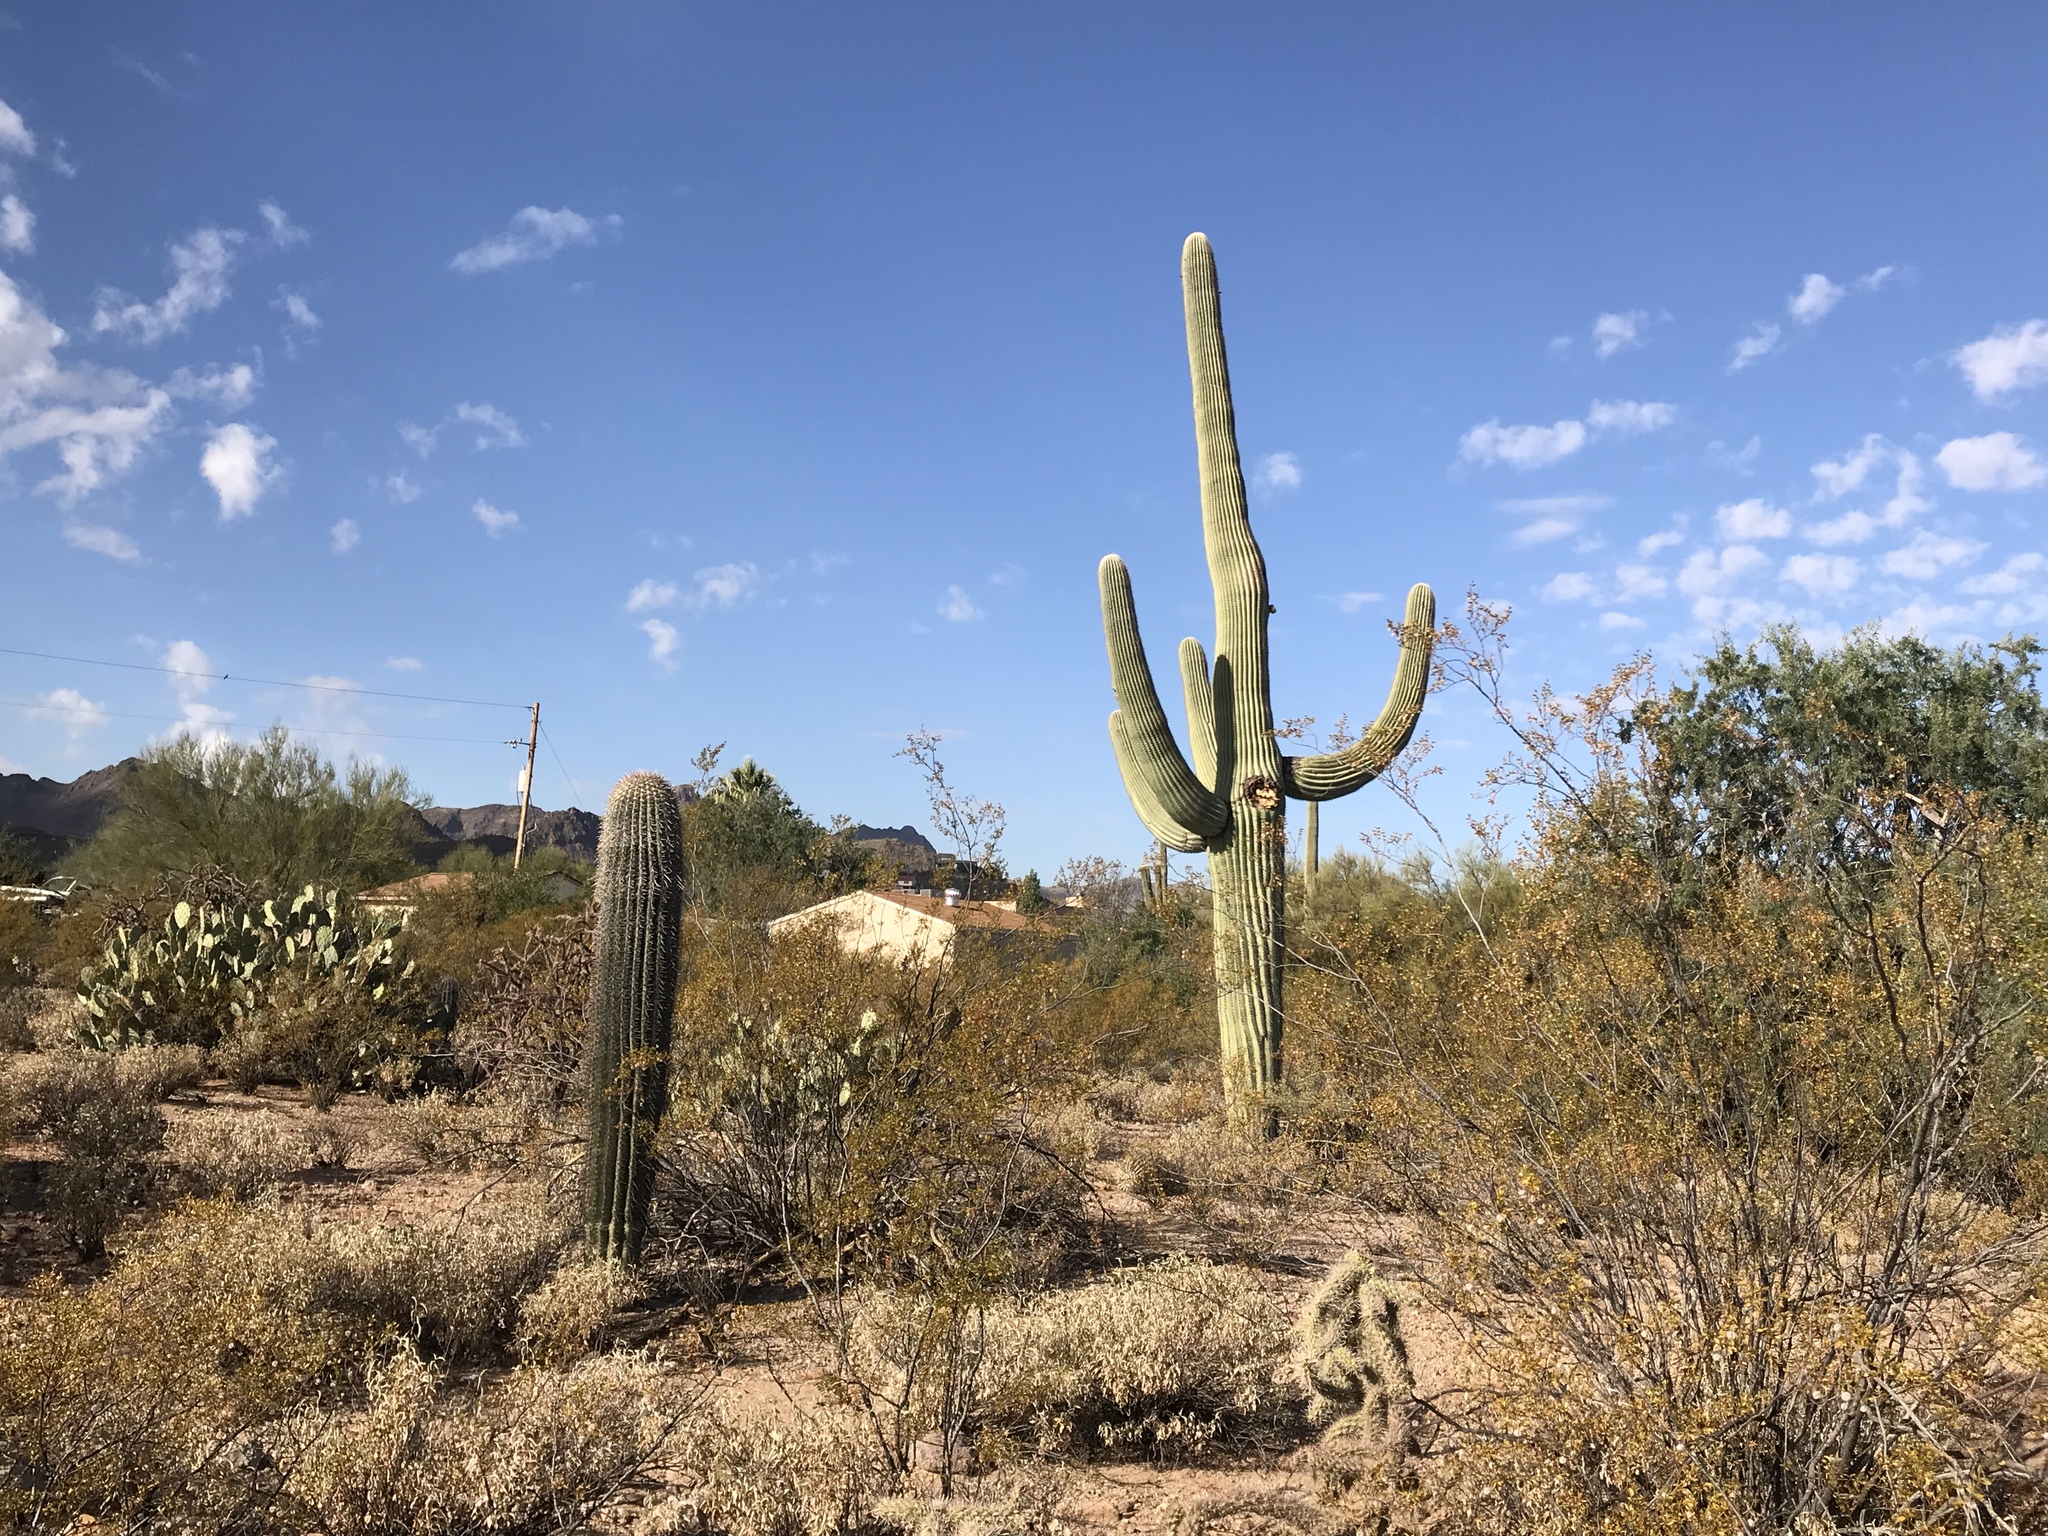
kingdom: Plantae
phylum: Tracheophyta
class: Magnoliopsida
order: Caryophyllales
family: Cactaceae
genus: Carnegiea
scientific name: Carnegiea gigantea
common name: Saguaro
